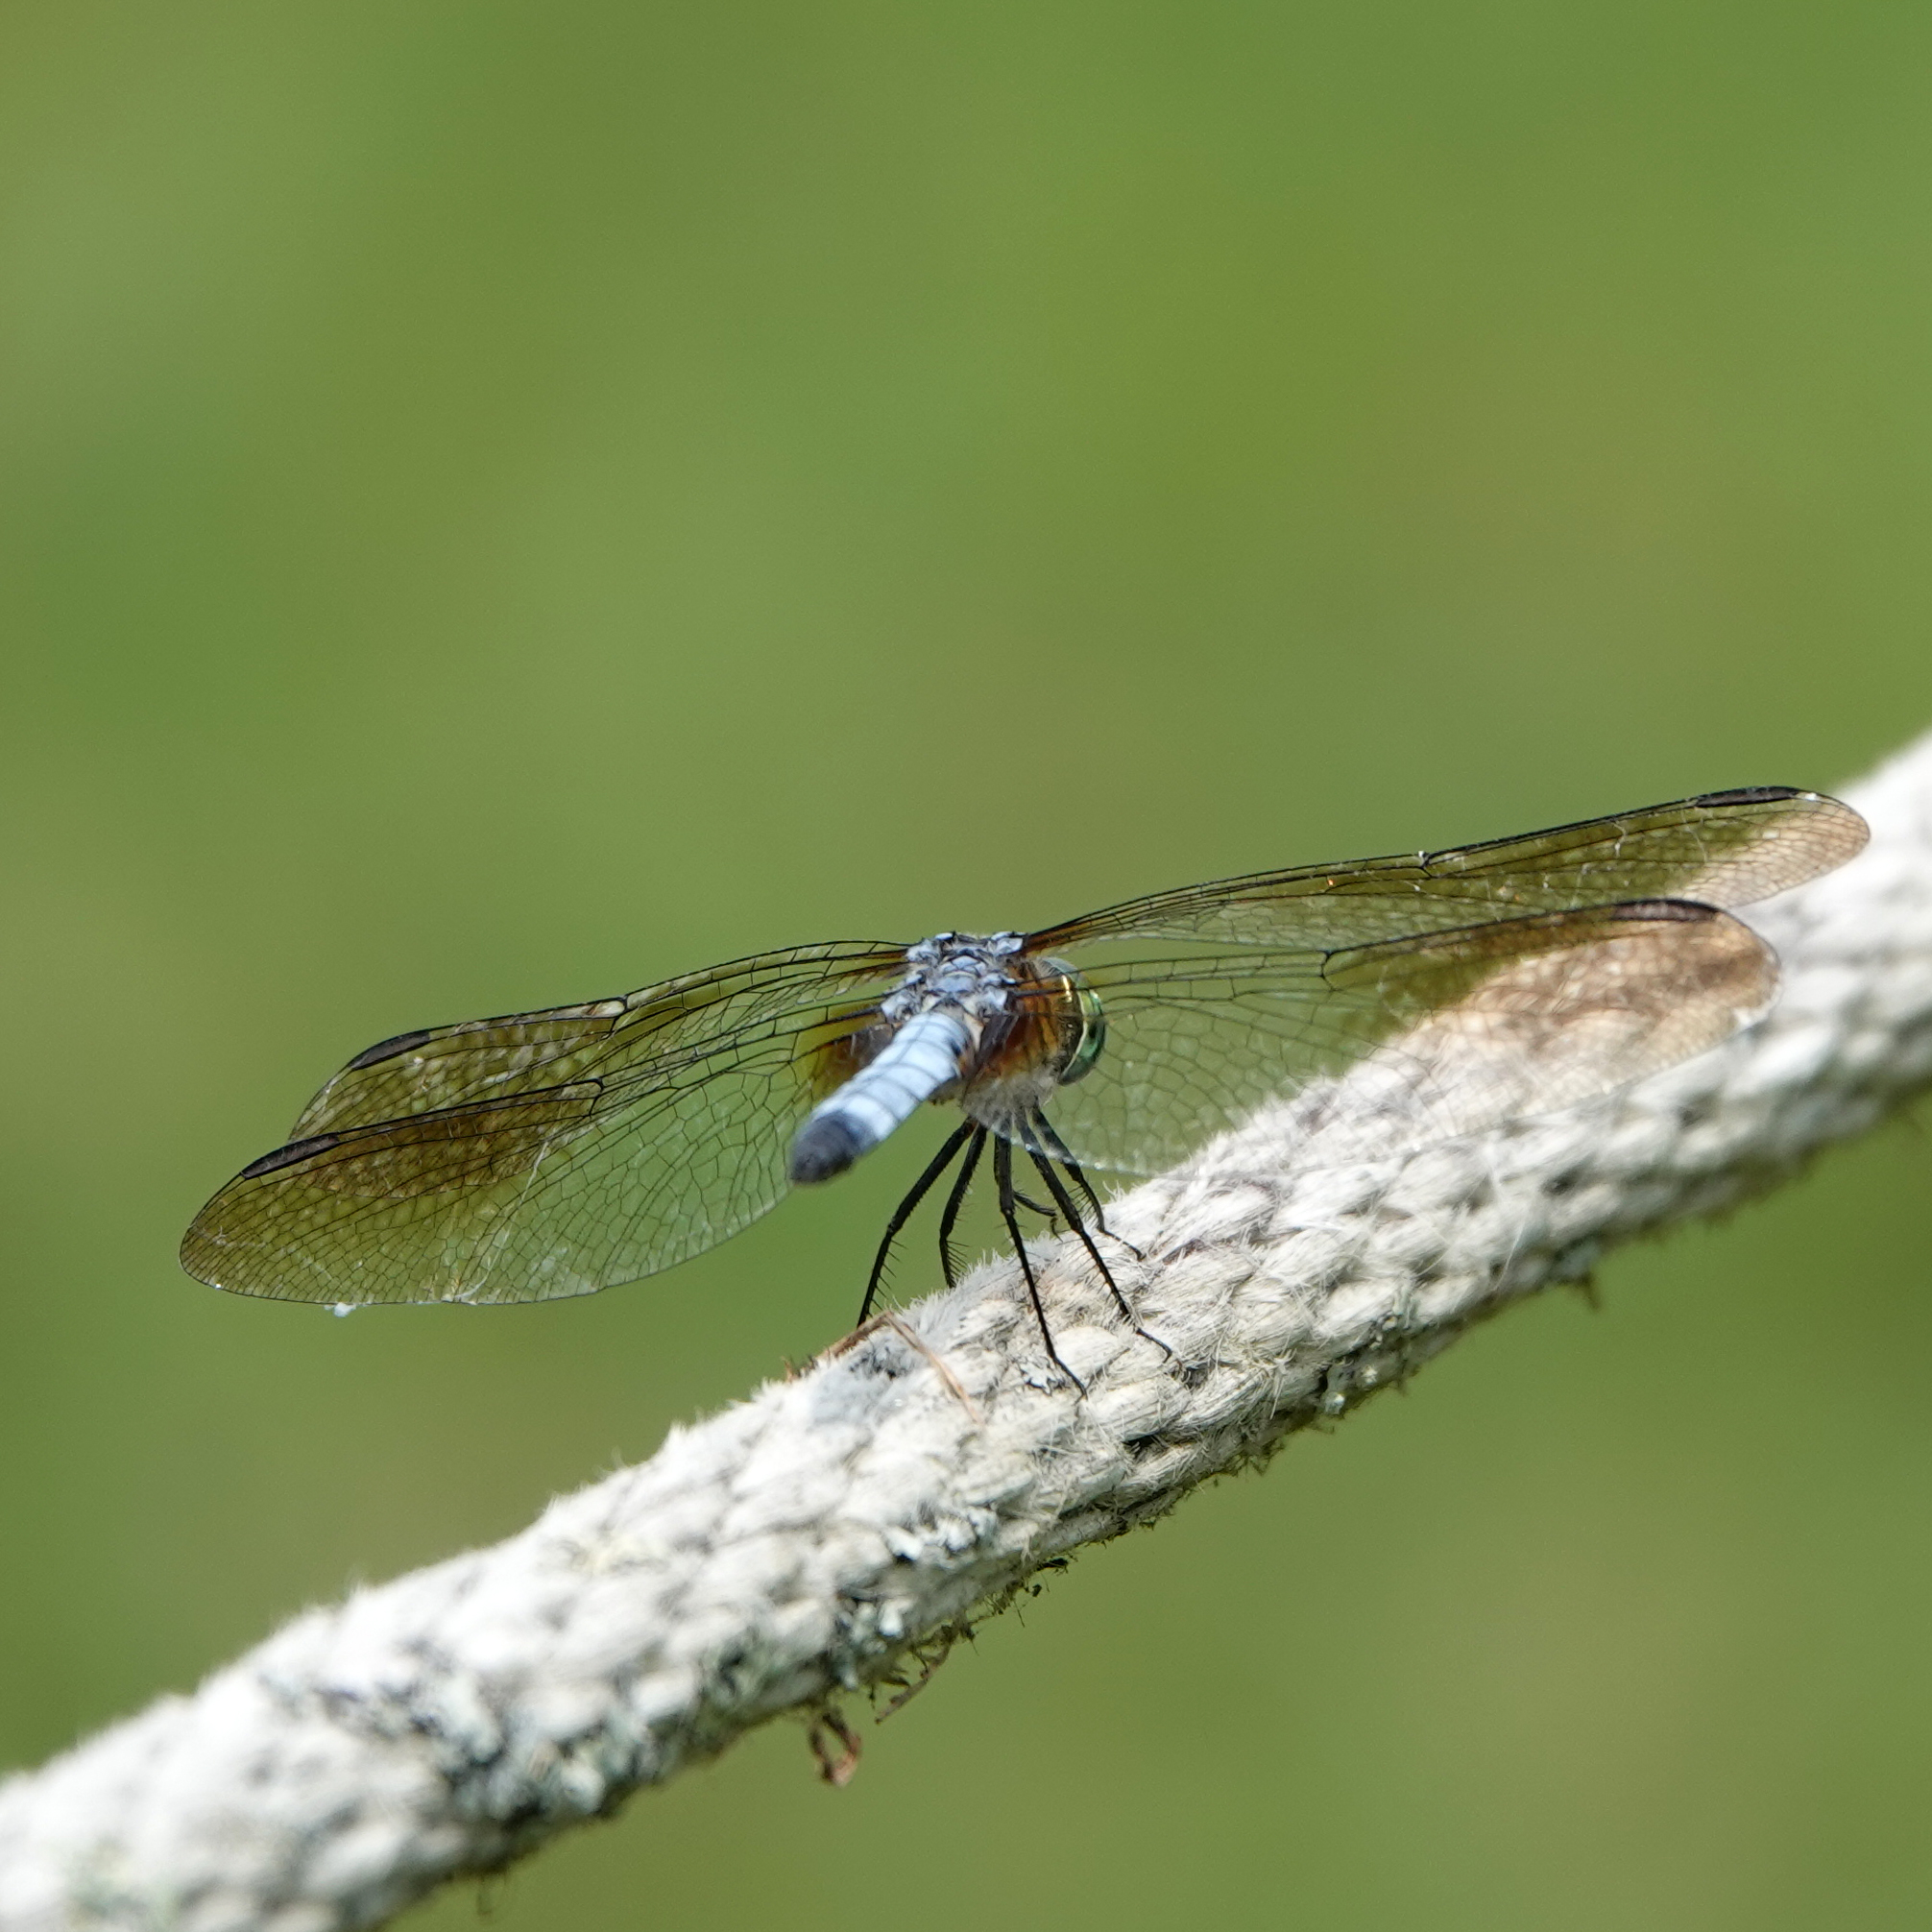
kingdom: Animalia
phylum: Arthropoda
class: Insecta
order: Odonata
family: Libellulidae
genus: Pachydiplax
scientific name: Pachydiplax longipennis
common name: Blue dasher
